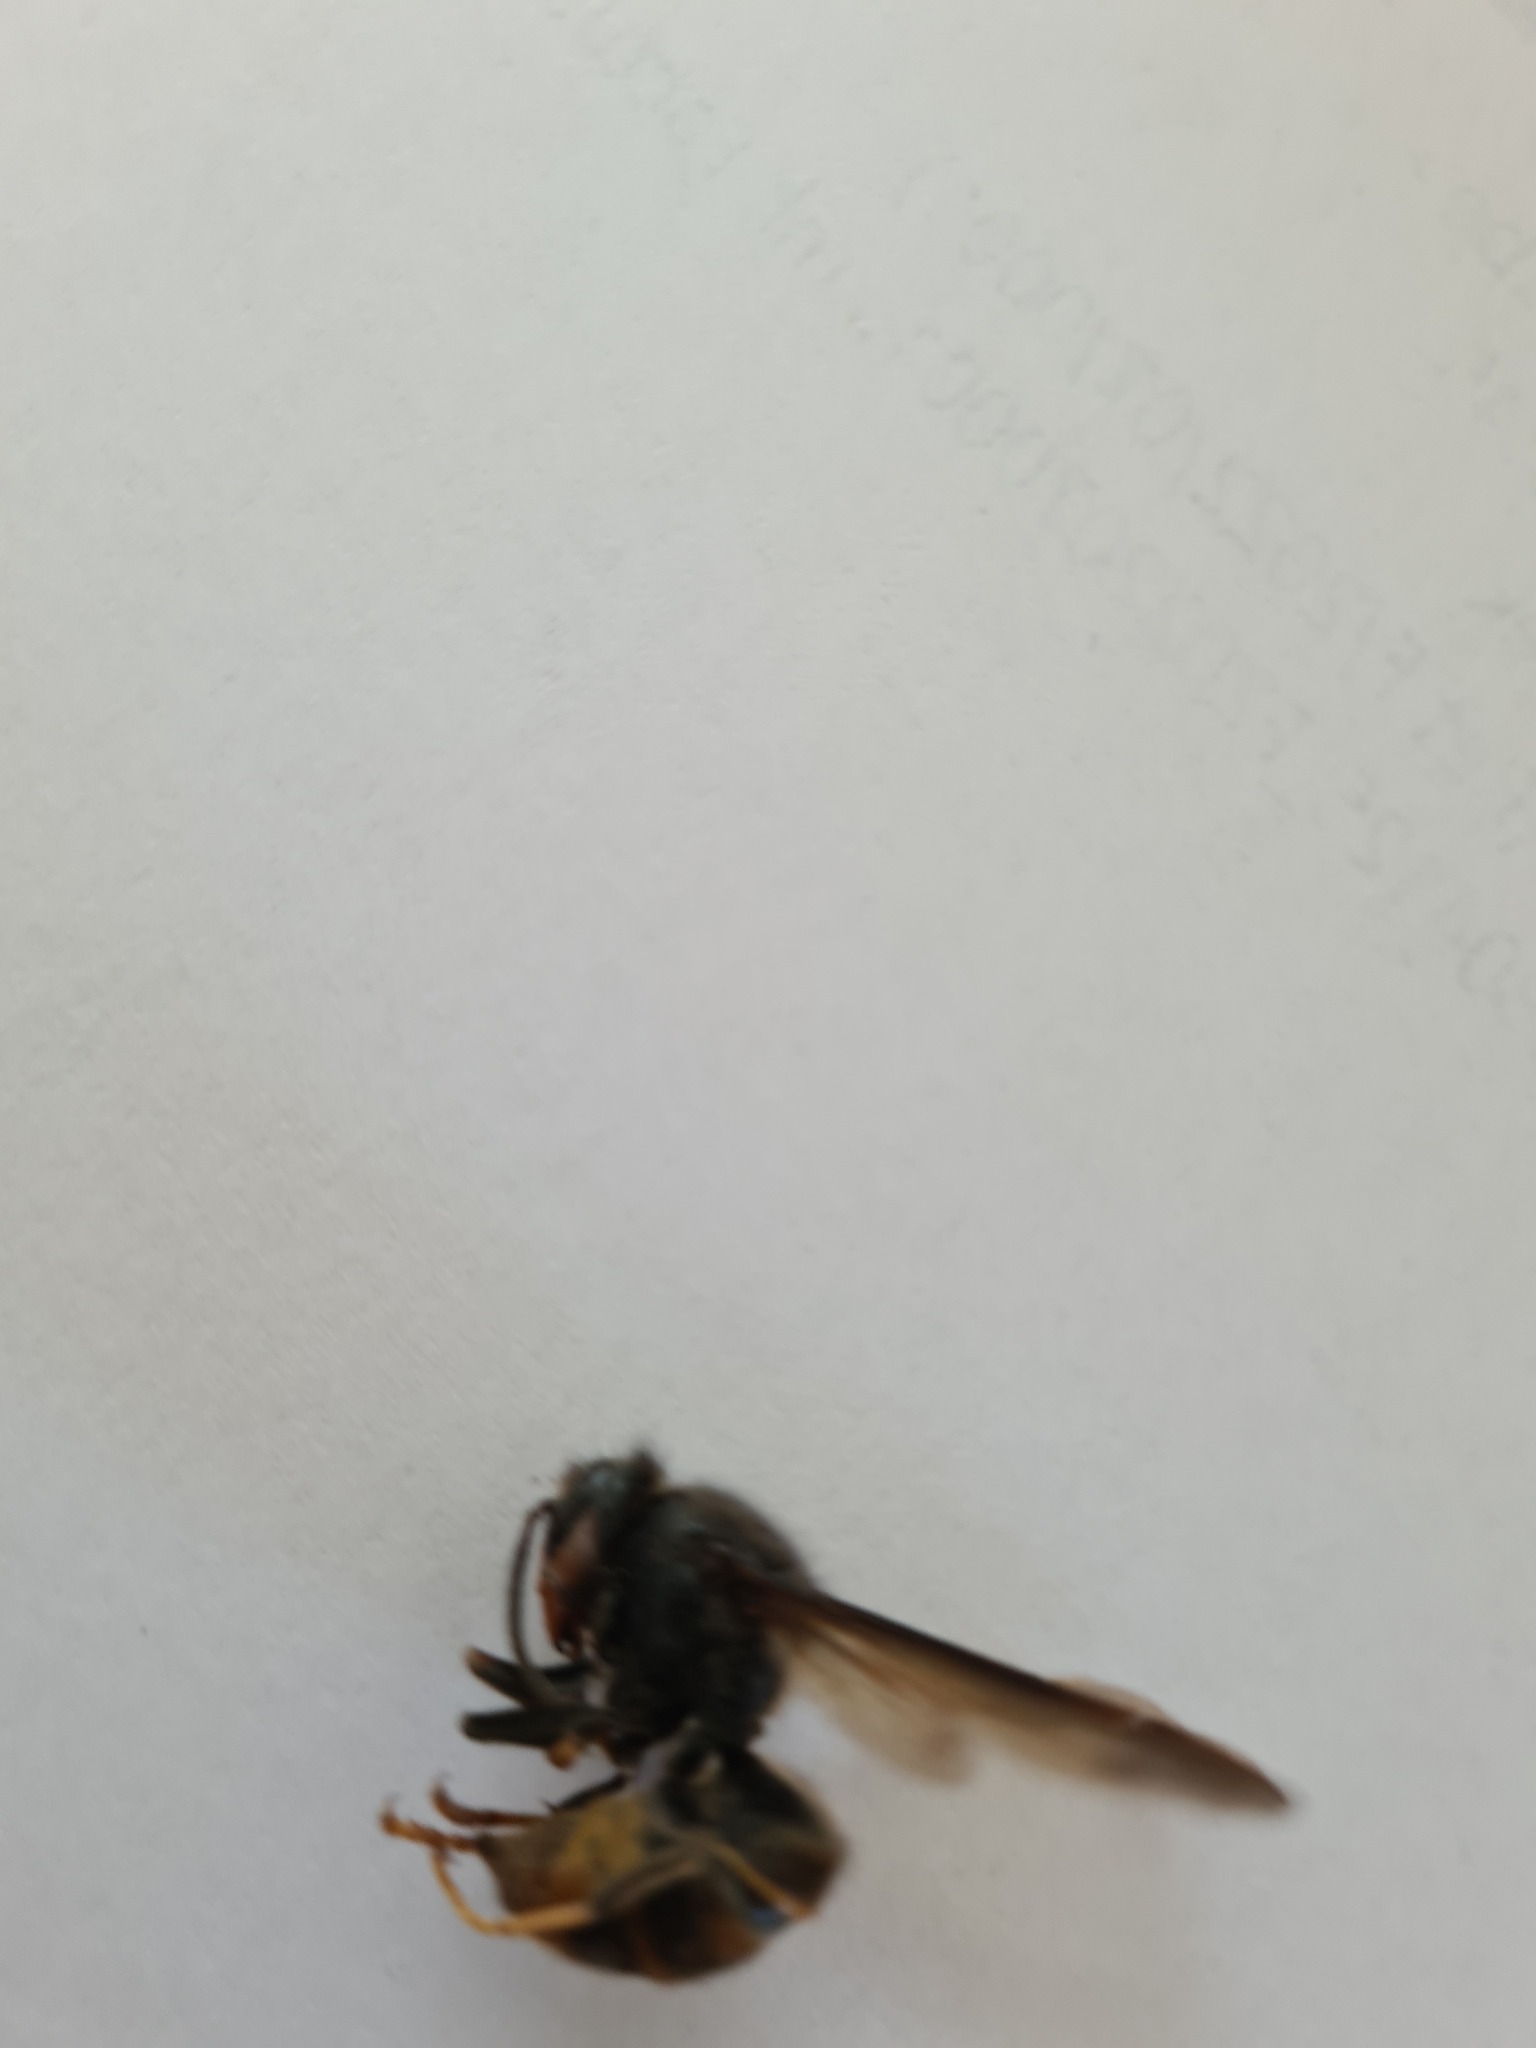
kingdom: Animalia
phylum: Arthropoda
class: Insecta
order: Hymenoptera
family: Vespidae
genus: Vespa
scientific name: Vespa velutina
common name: Asian hornet
